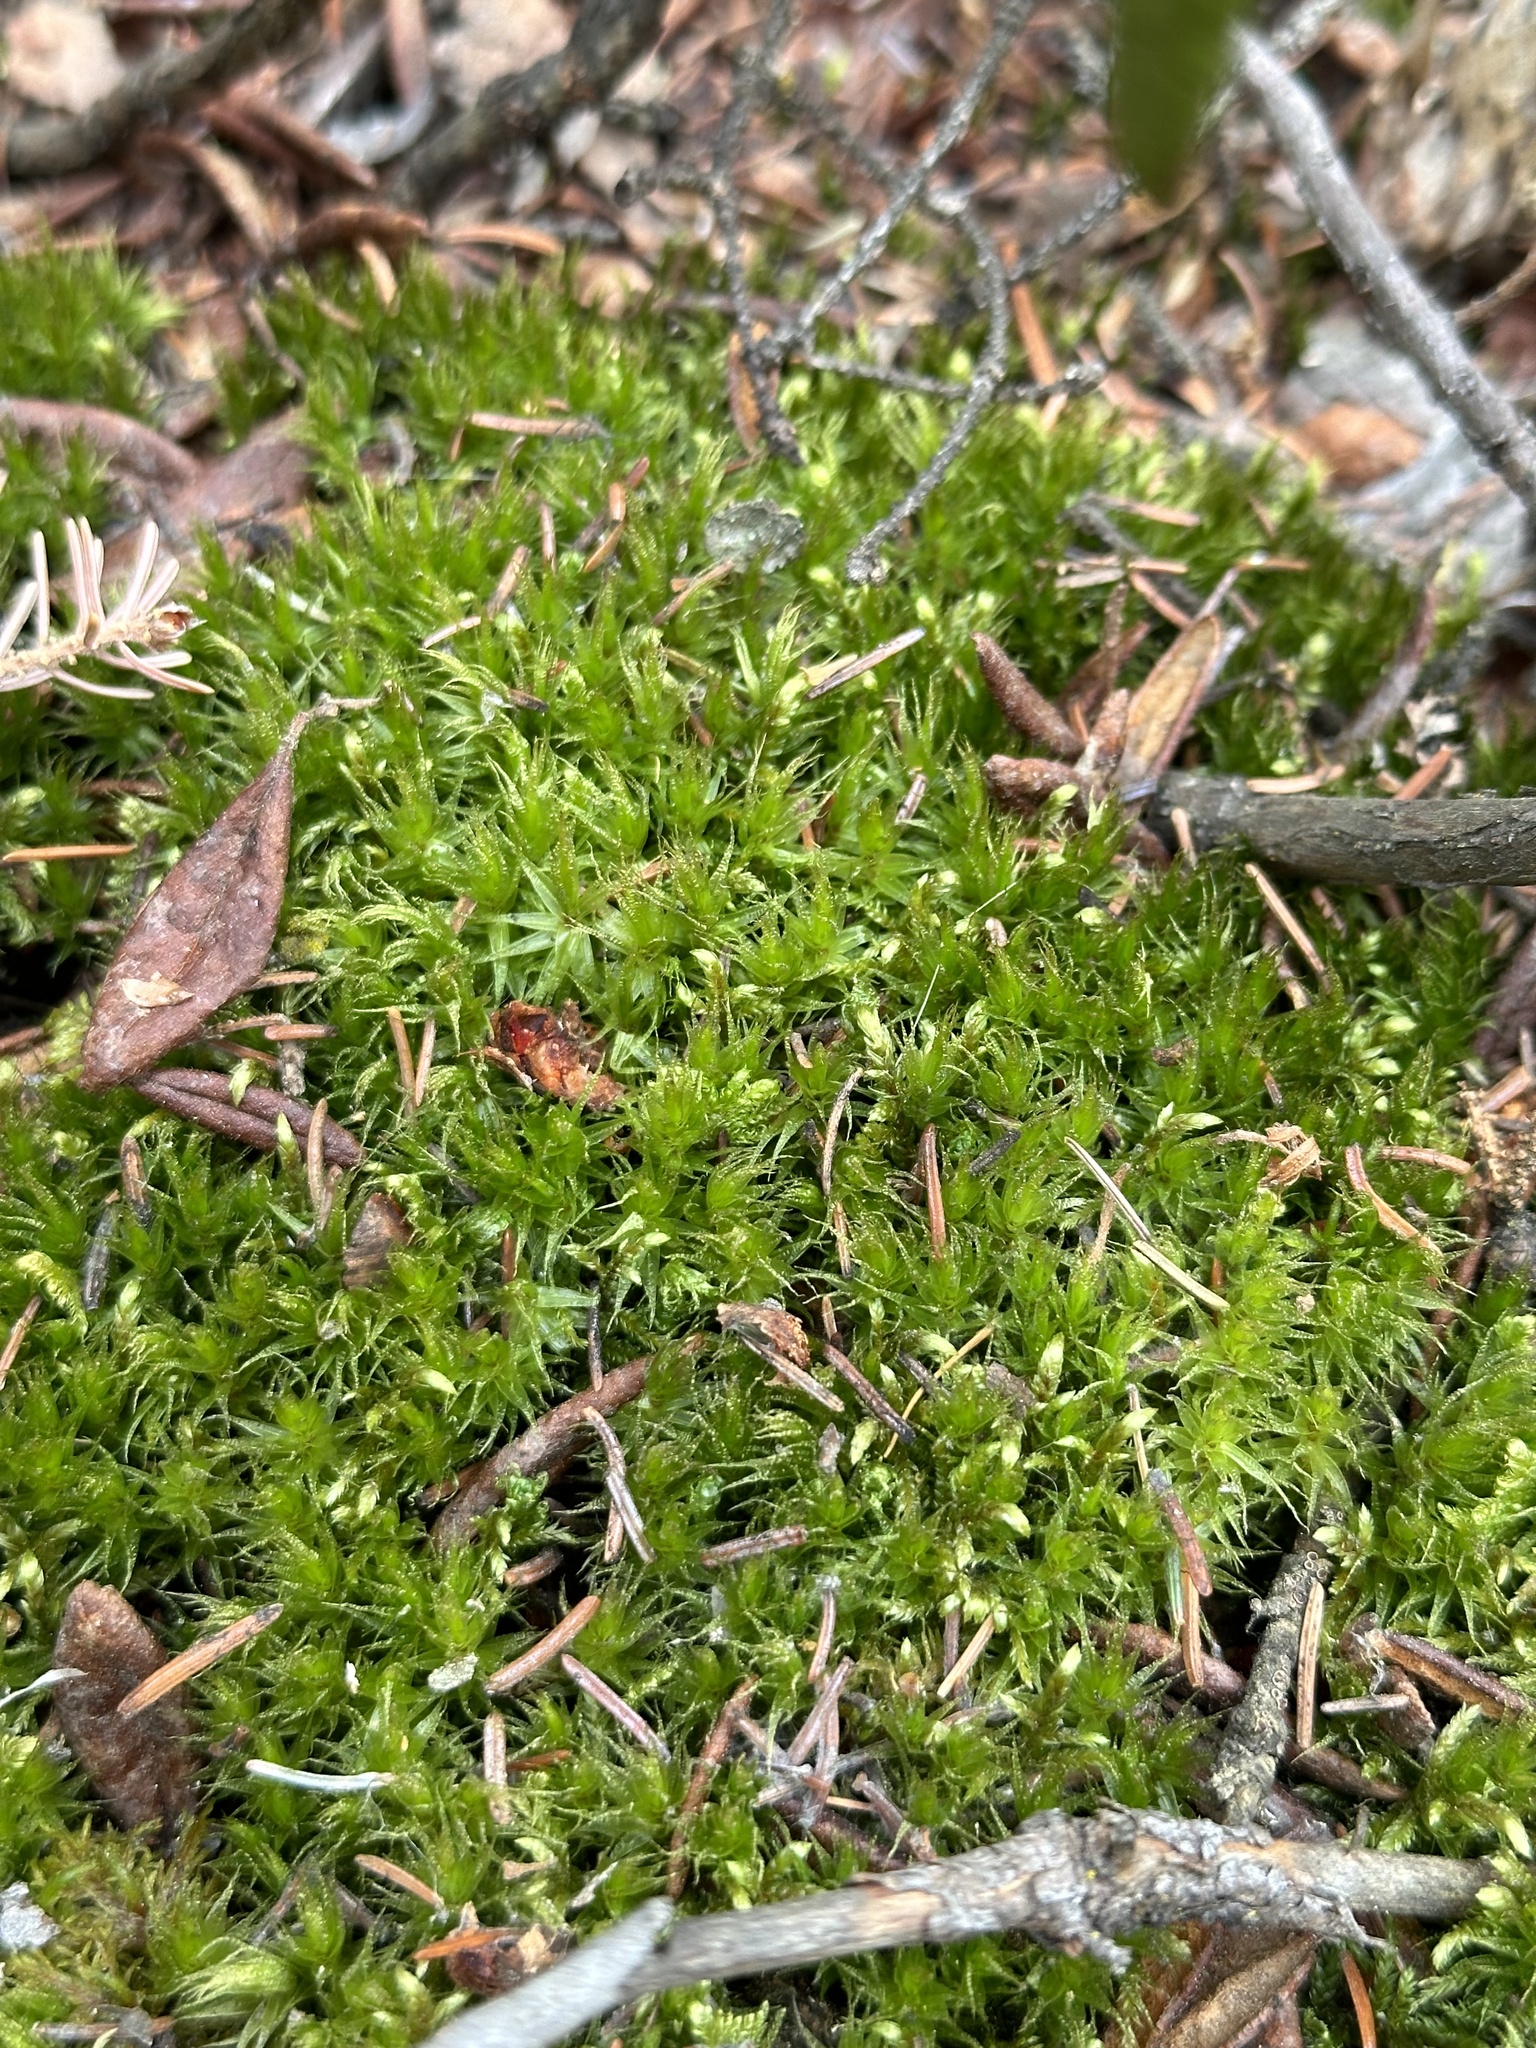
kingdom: Plantae
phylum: Bryophyta
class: Bryopsida
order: Dicranales
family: Dicranaceae
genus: Dicranum
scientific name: Dicranum polysetum
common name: Rugose fork-moss
